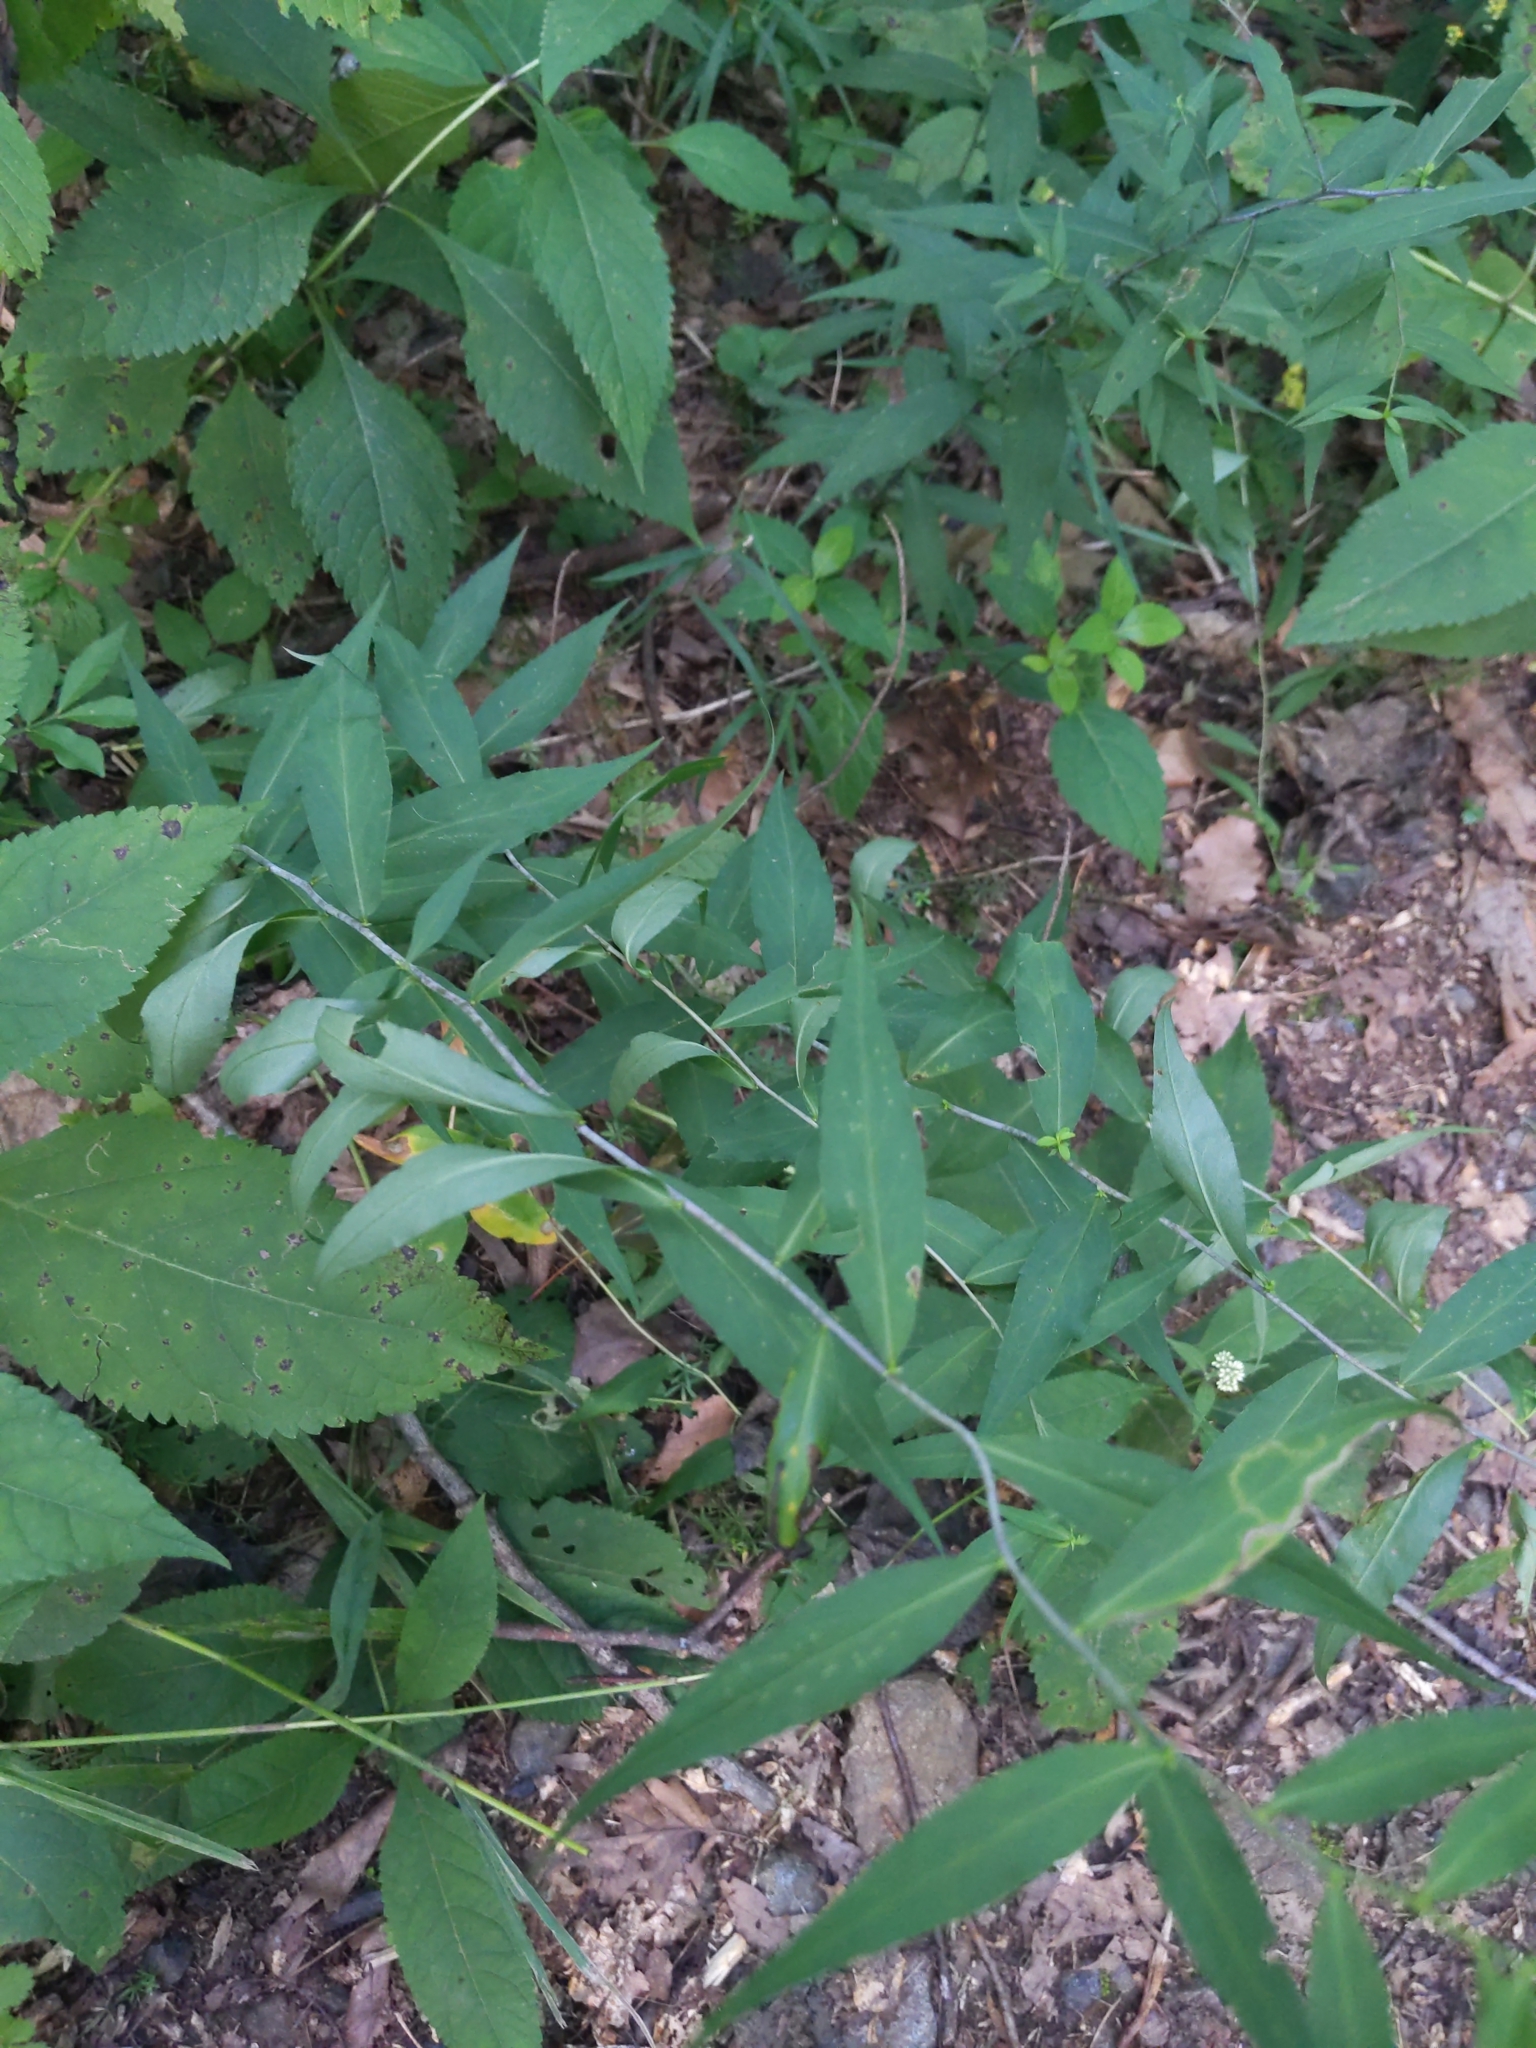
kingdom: Plantae
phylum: Tracheophyta
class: Magnoliopsida
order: Asterales
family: Asteraceae
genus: Solidago
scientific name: Solidago caesia
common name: Woodland goldenrod
